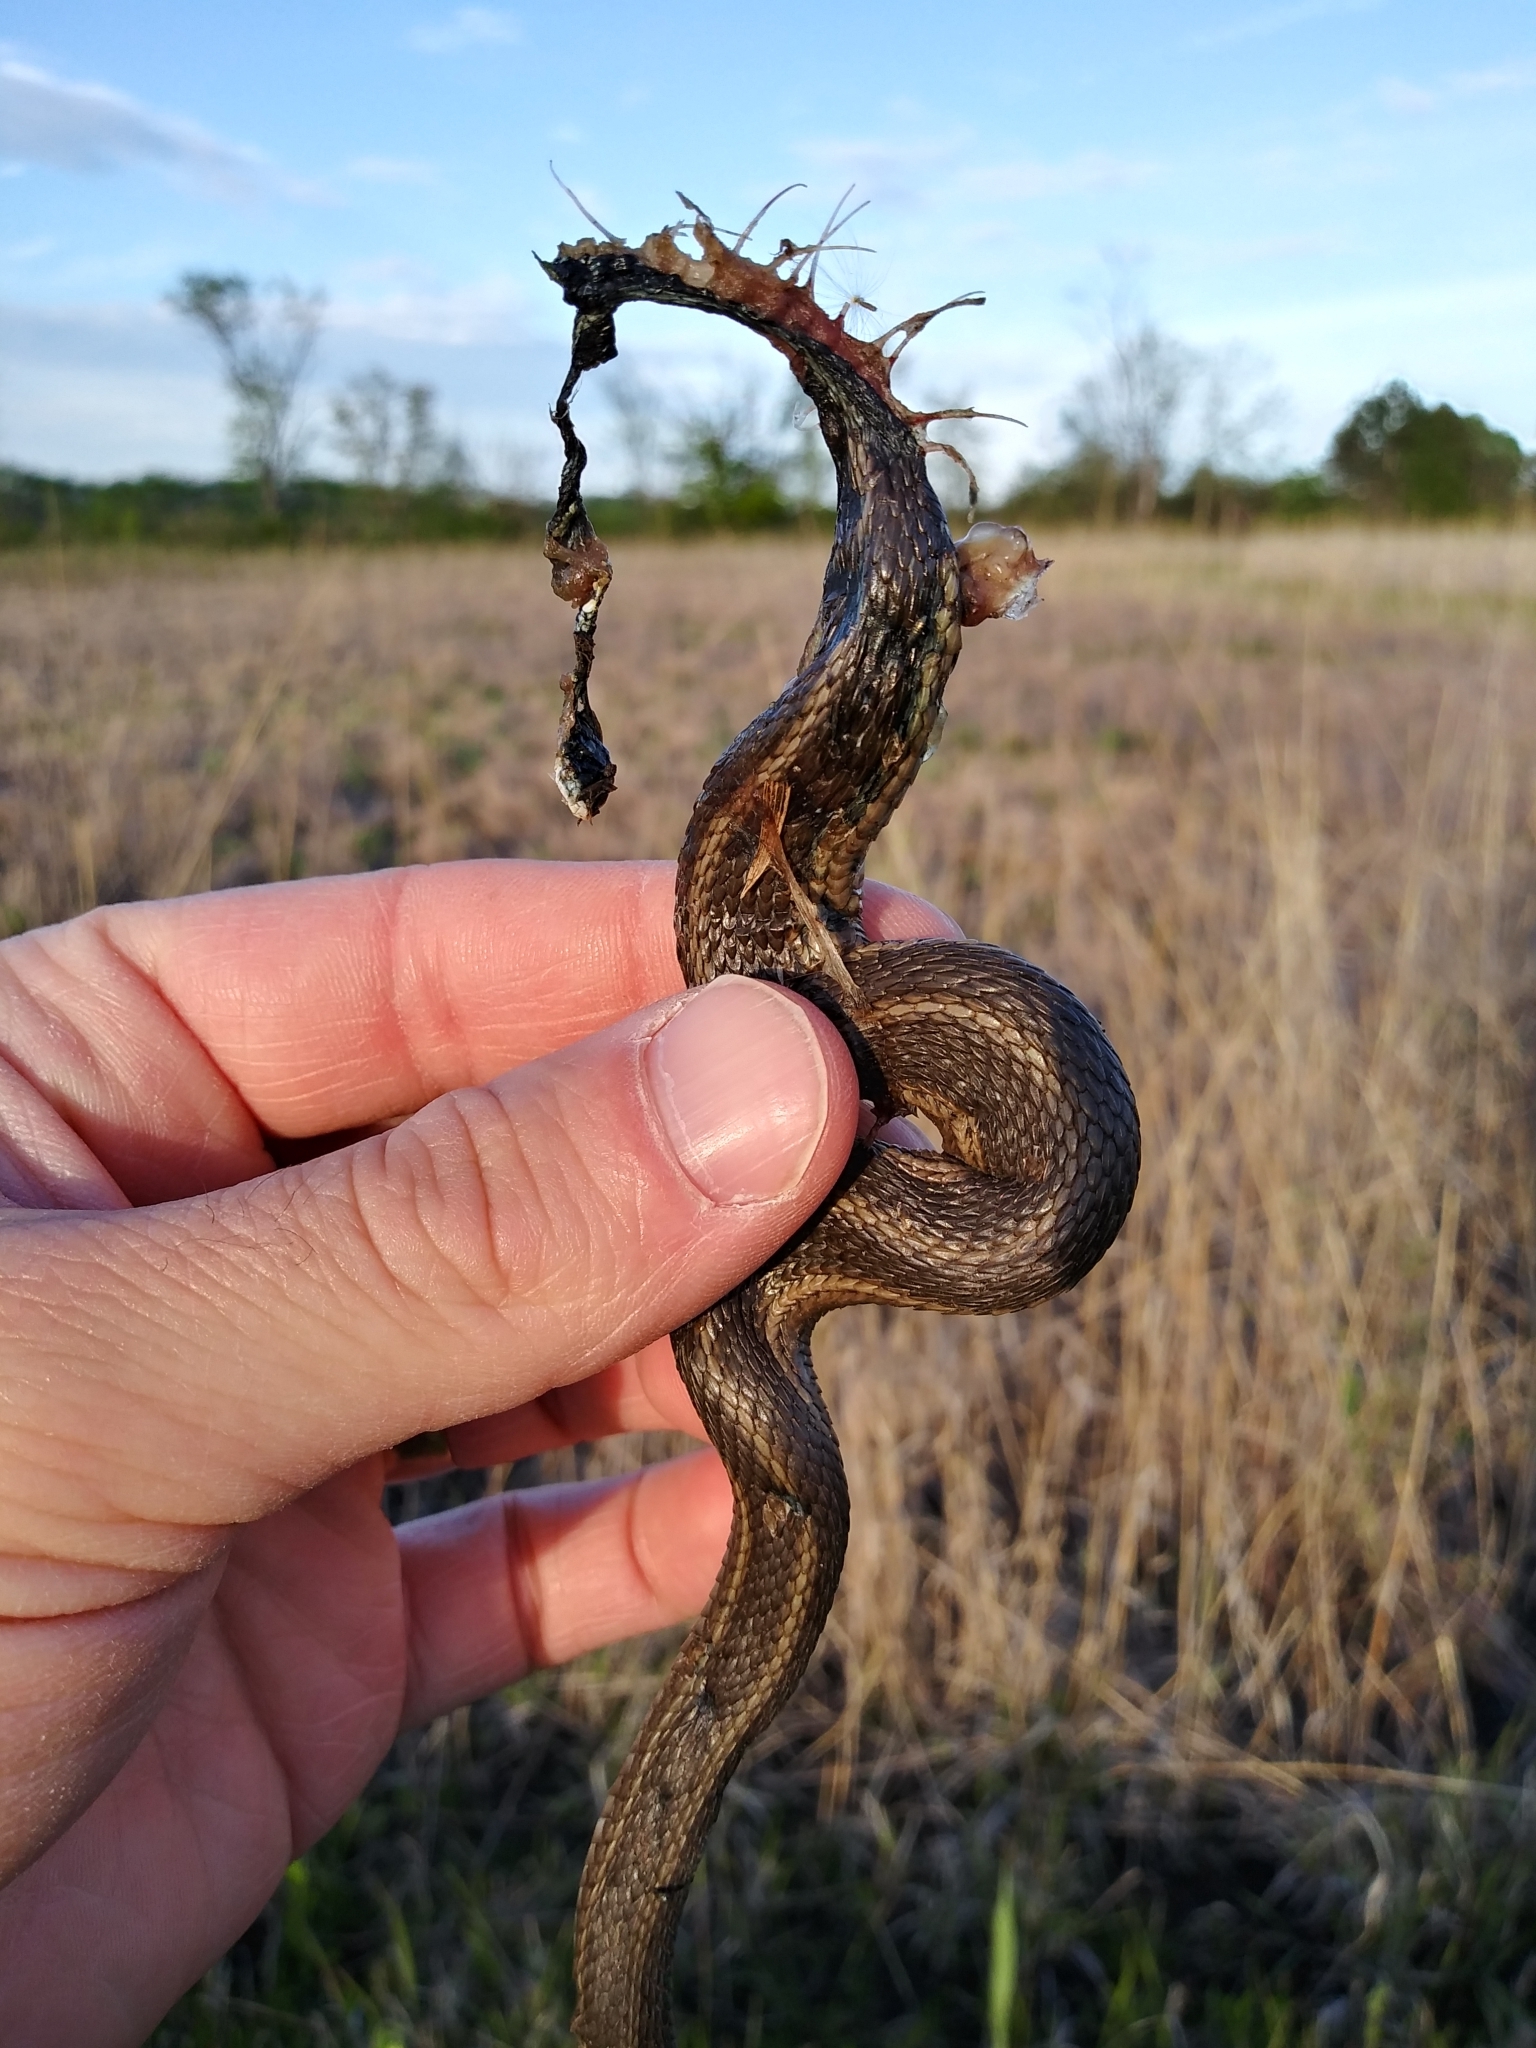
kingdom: Animalia
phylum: Chordata
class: Squamata
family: Colubridae
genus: Thamnophis
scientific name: Thamnophis sirtalis
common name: Common garter snake
